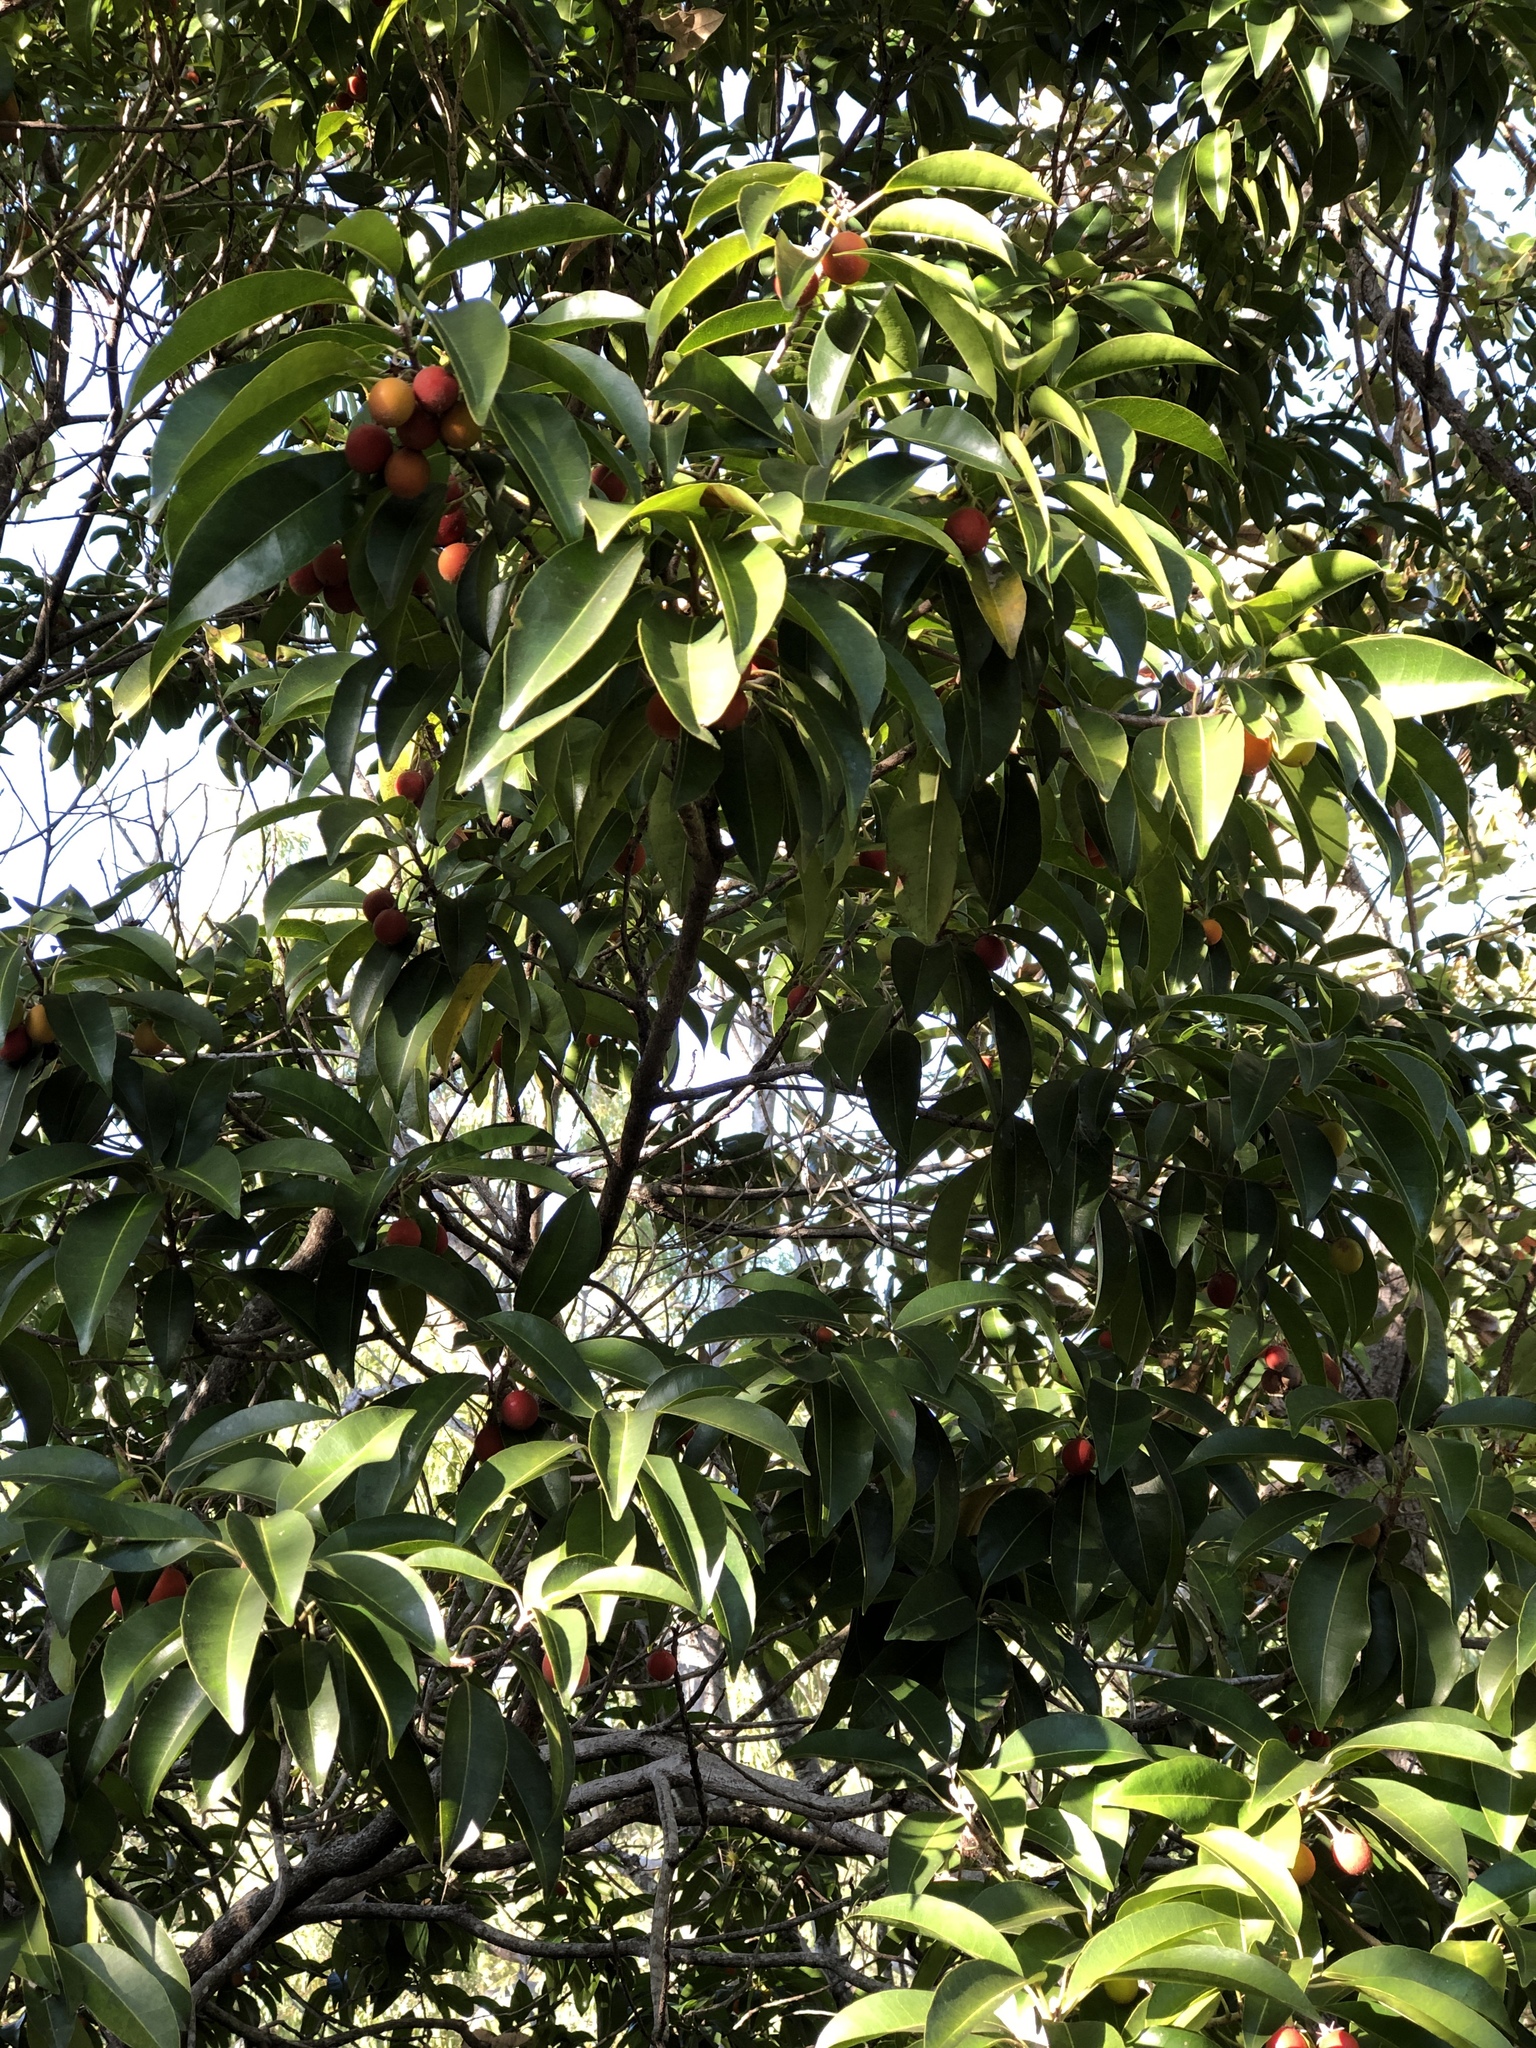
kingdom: Plantae
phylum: Tracheophyta
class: Magnoliopsida
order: Ericales
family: Sapotaceae
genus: Mimusops
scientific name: Mimusops elengi
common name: Spanish cherry
